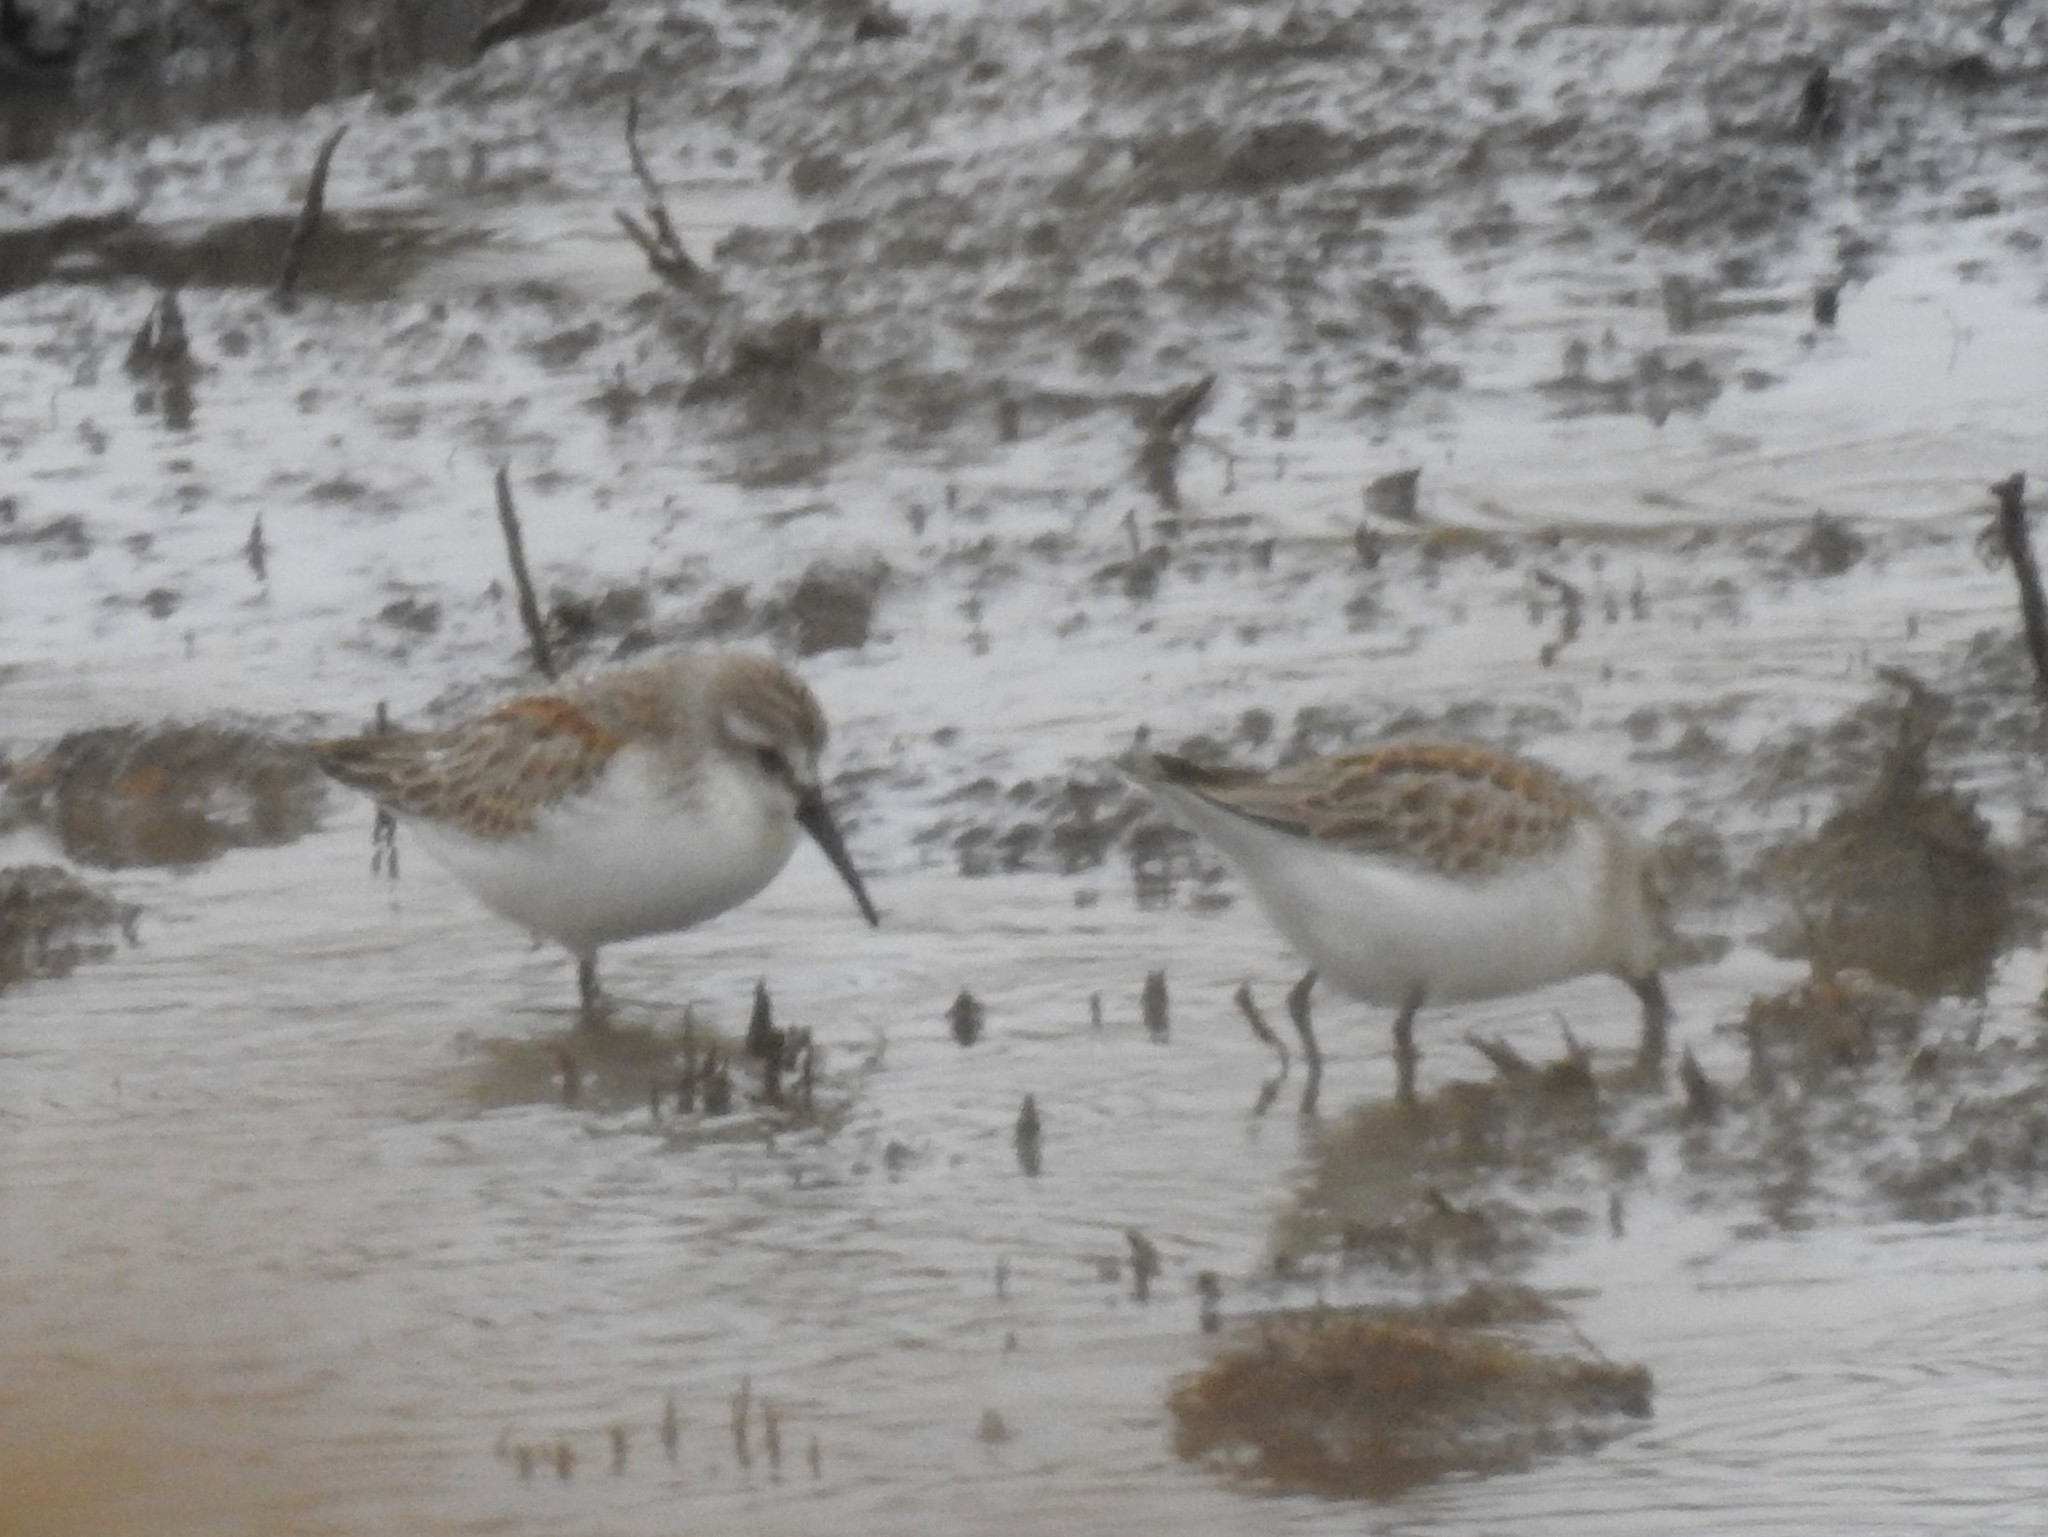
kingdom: Animalia
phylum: Chordata
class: Aves
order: Charadriiformes
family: Scolopacidae
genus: Calidris
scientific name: Calidris mauri
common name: Western sandpiper
